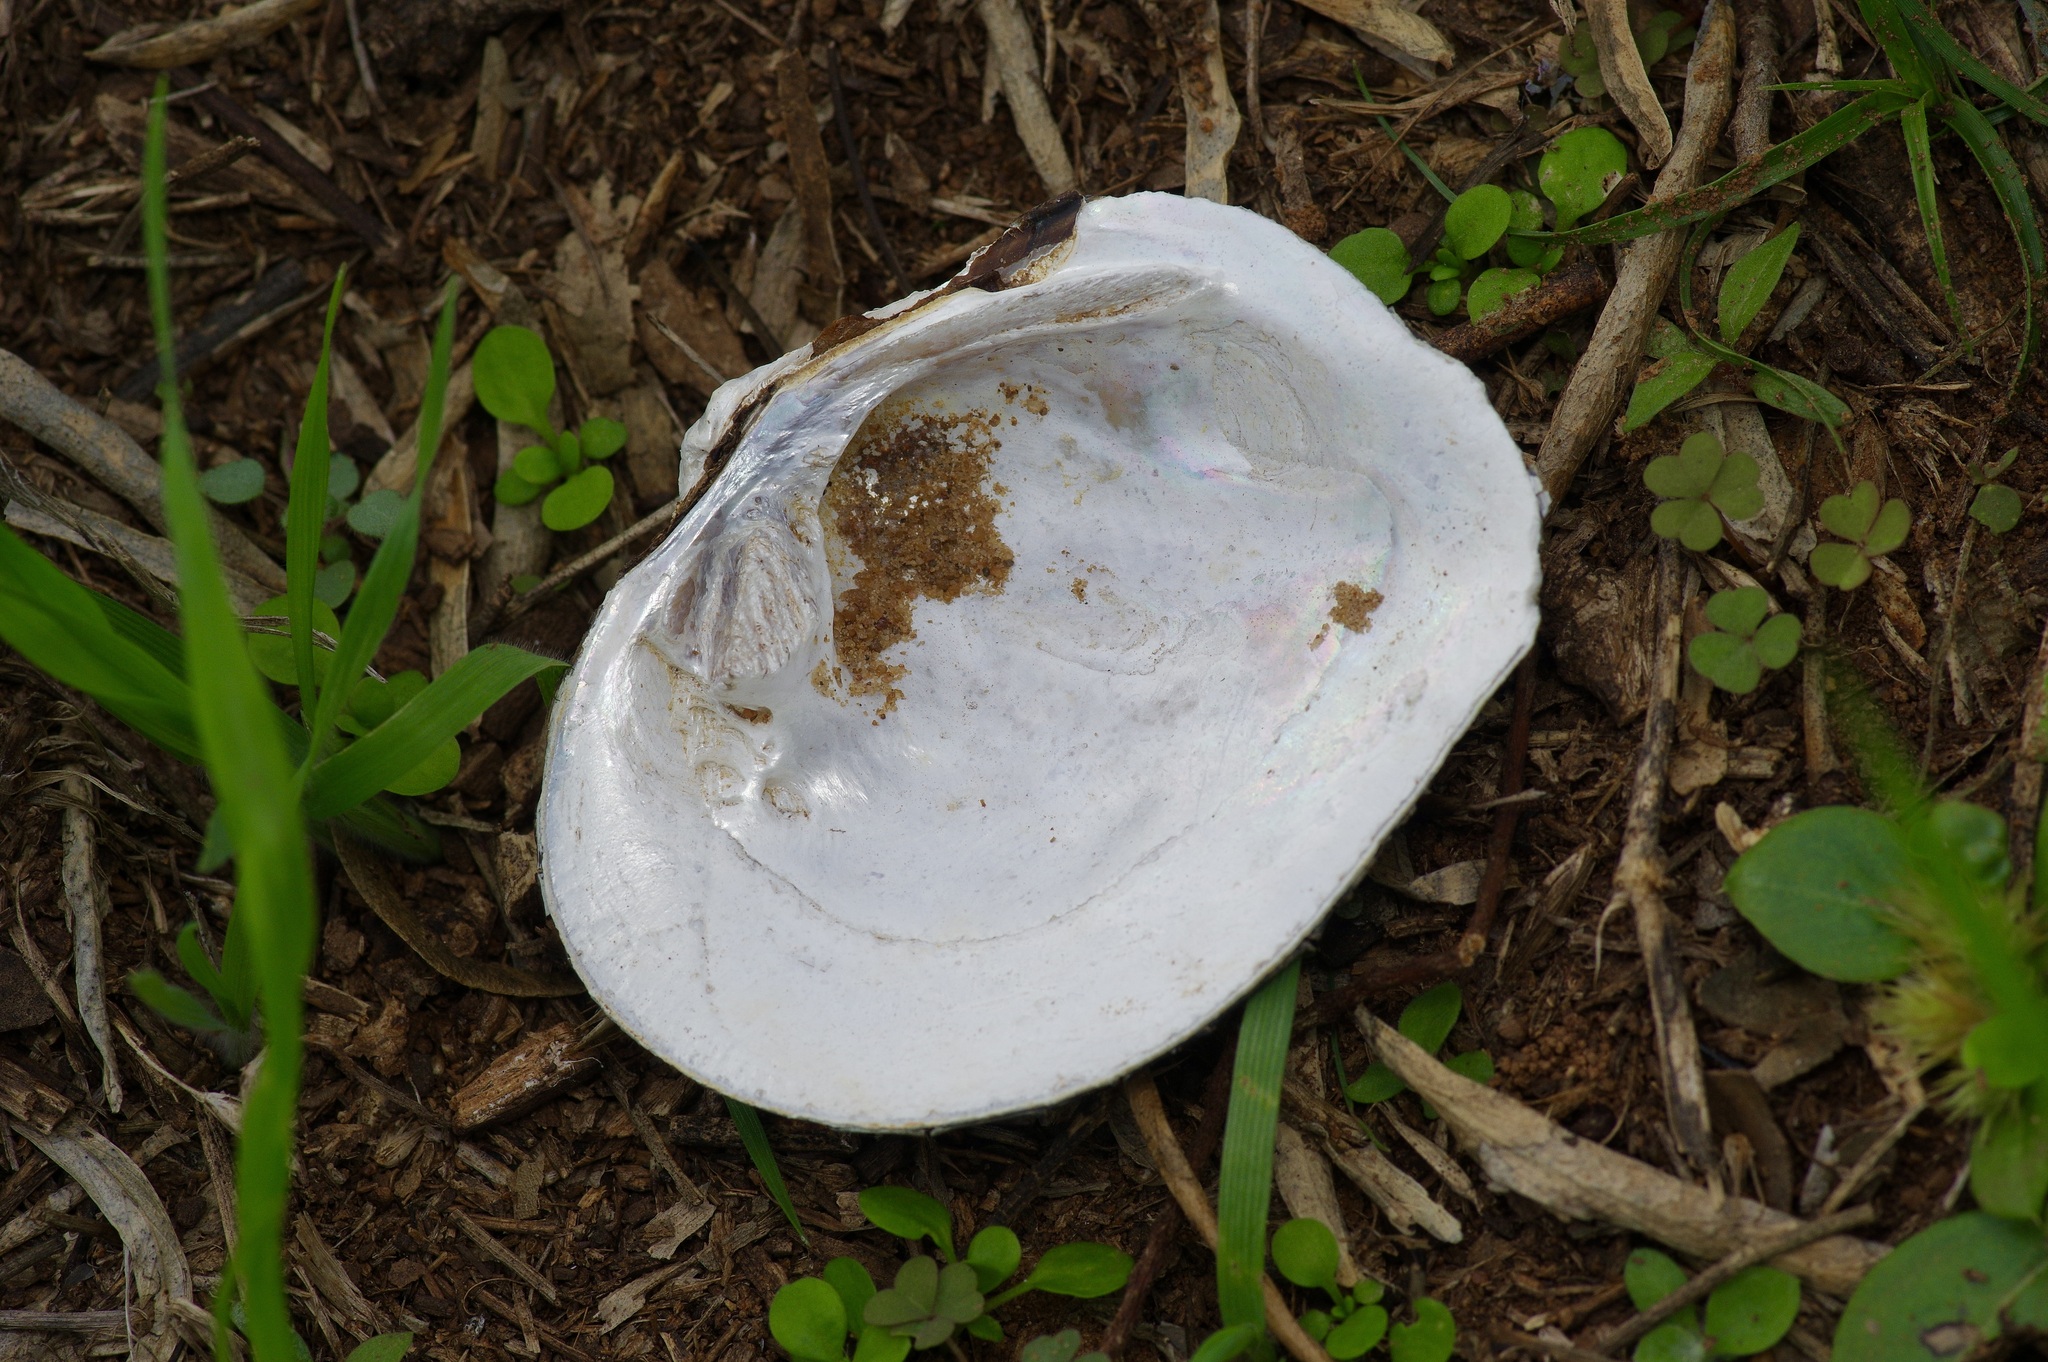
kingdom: Animalia
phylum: Mollusca
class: Bivalvia
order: Unionida
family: Unionidae
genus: Quadrula
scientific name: Quadrula quadrula
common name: Mapleleaf
